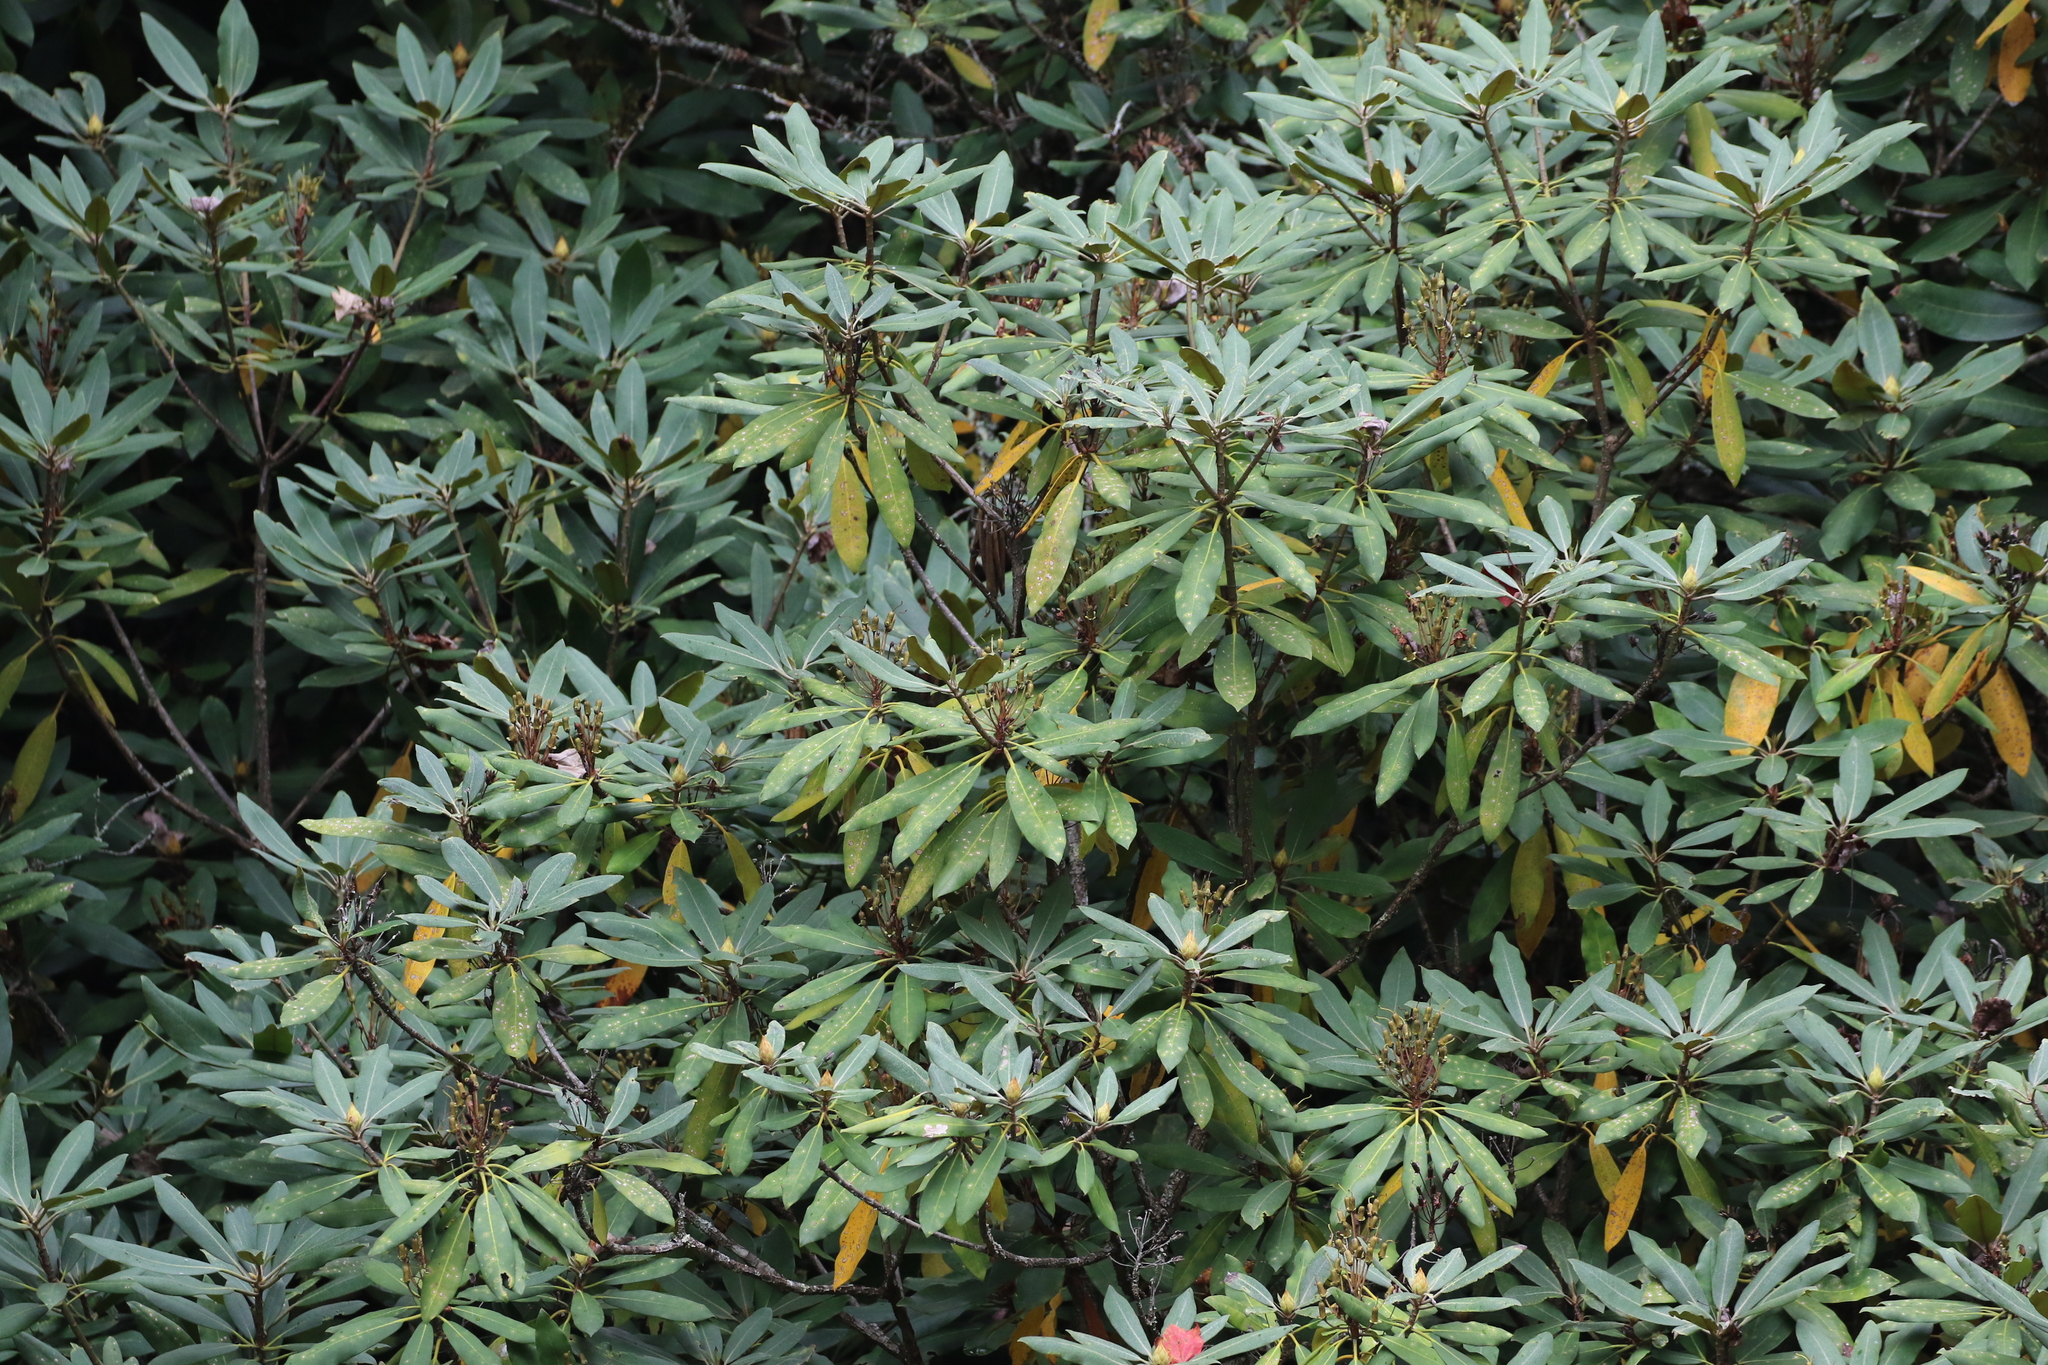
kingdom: Plantae
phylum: Tracheophyta
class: Magnoliopsida
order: Ericales
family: Ericaceae
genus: Rhododendron
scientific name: Rhododendron maximum
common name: Great rhododendron
